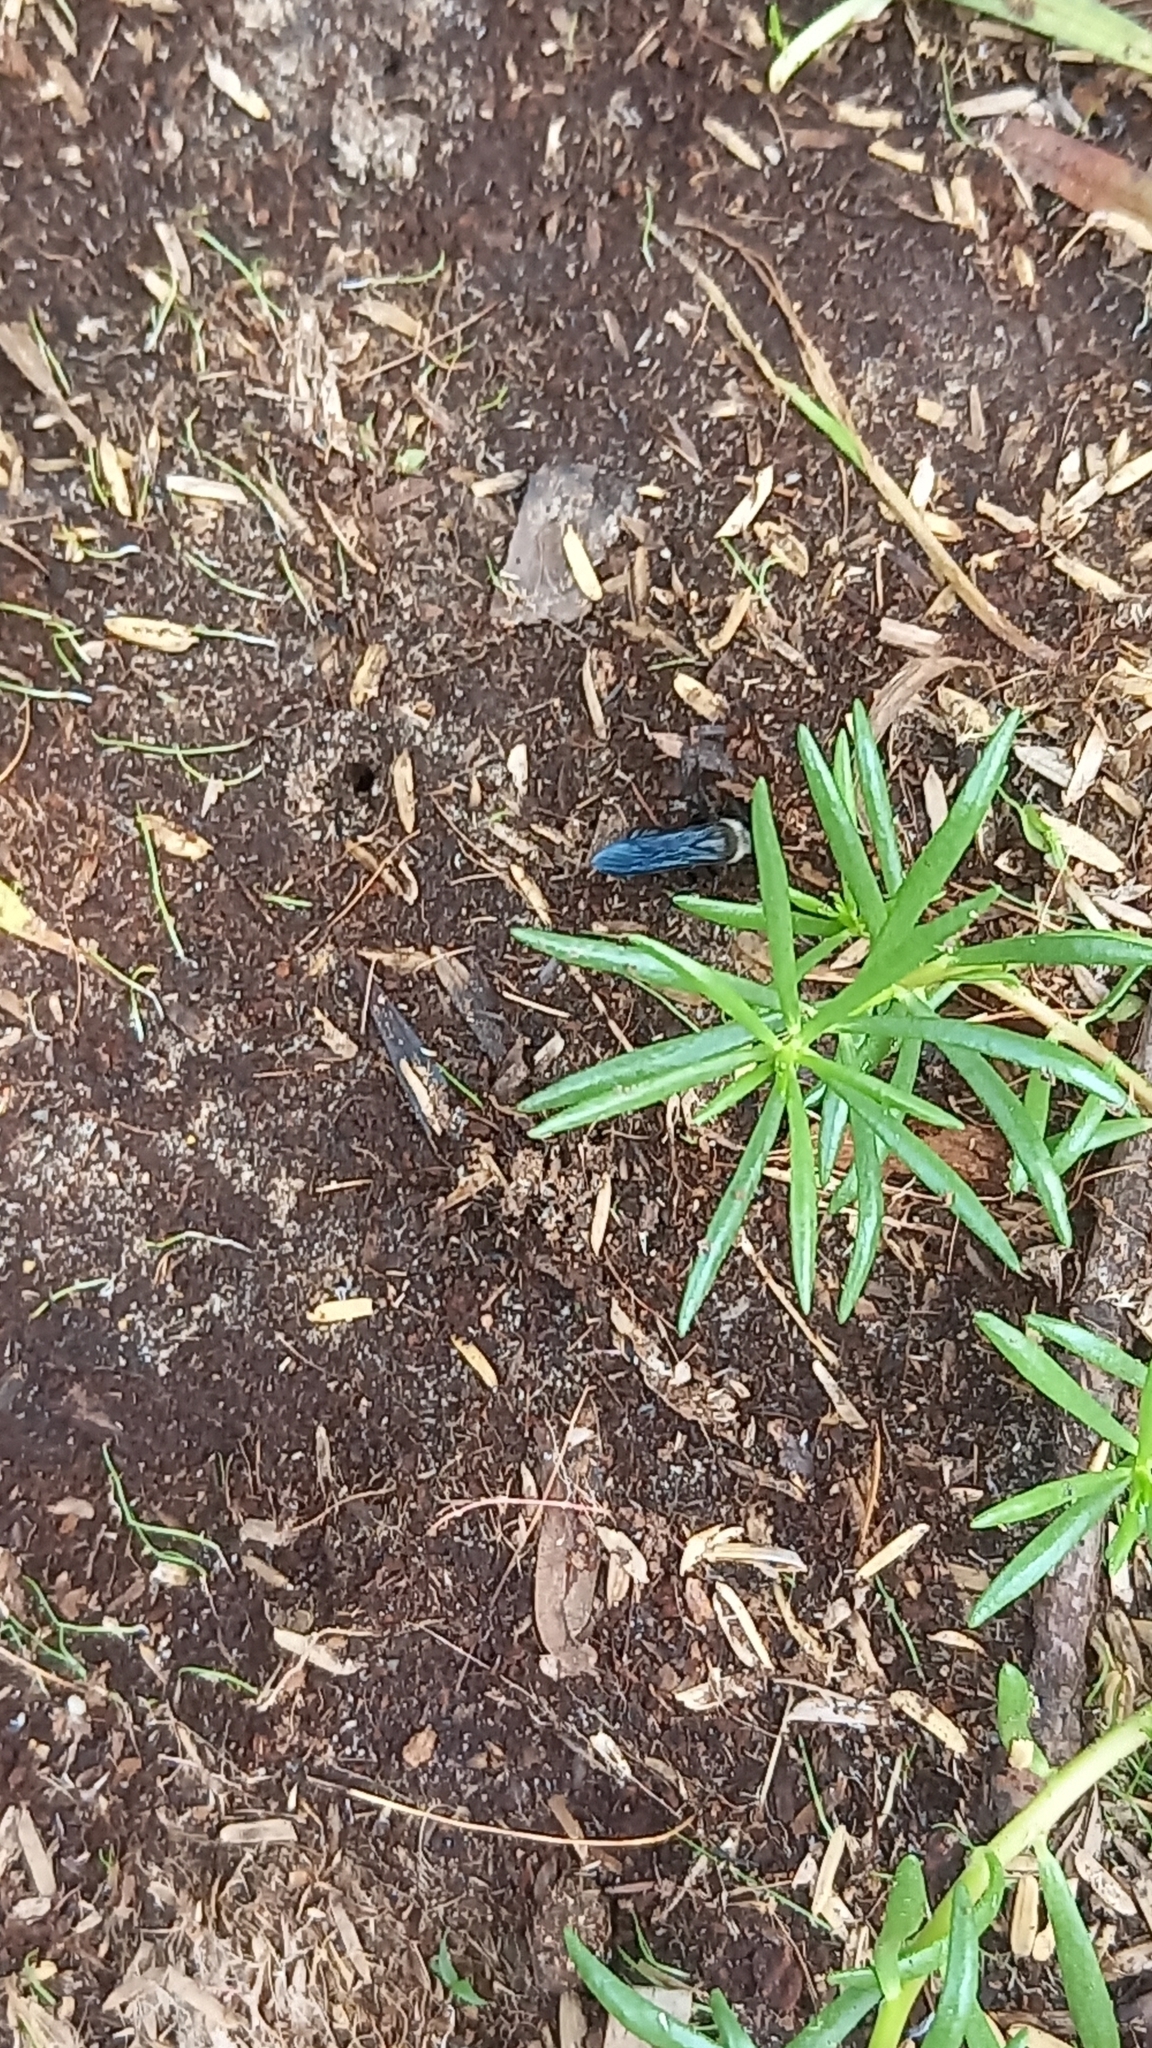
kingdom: Animalia
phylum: Arthropoda
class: Insecta
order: Hymenoptera
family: Scoliidae
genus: Campsomeriella
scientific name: Campsomeriella collaris
